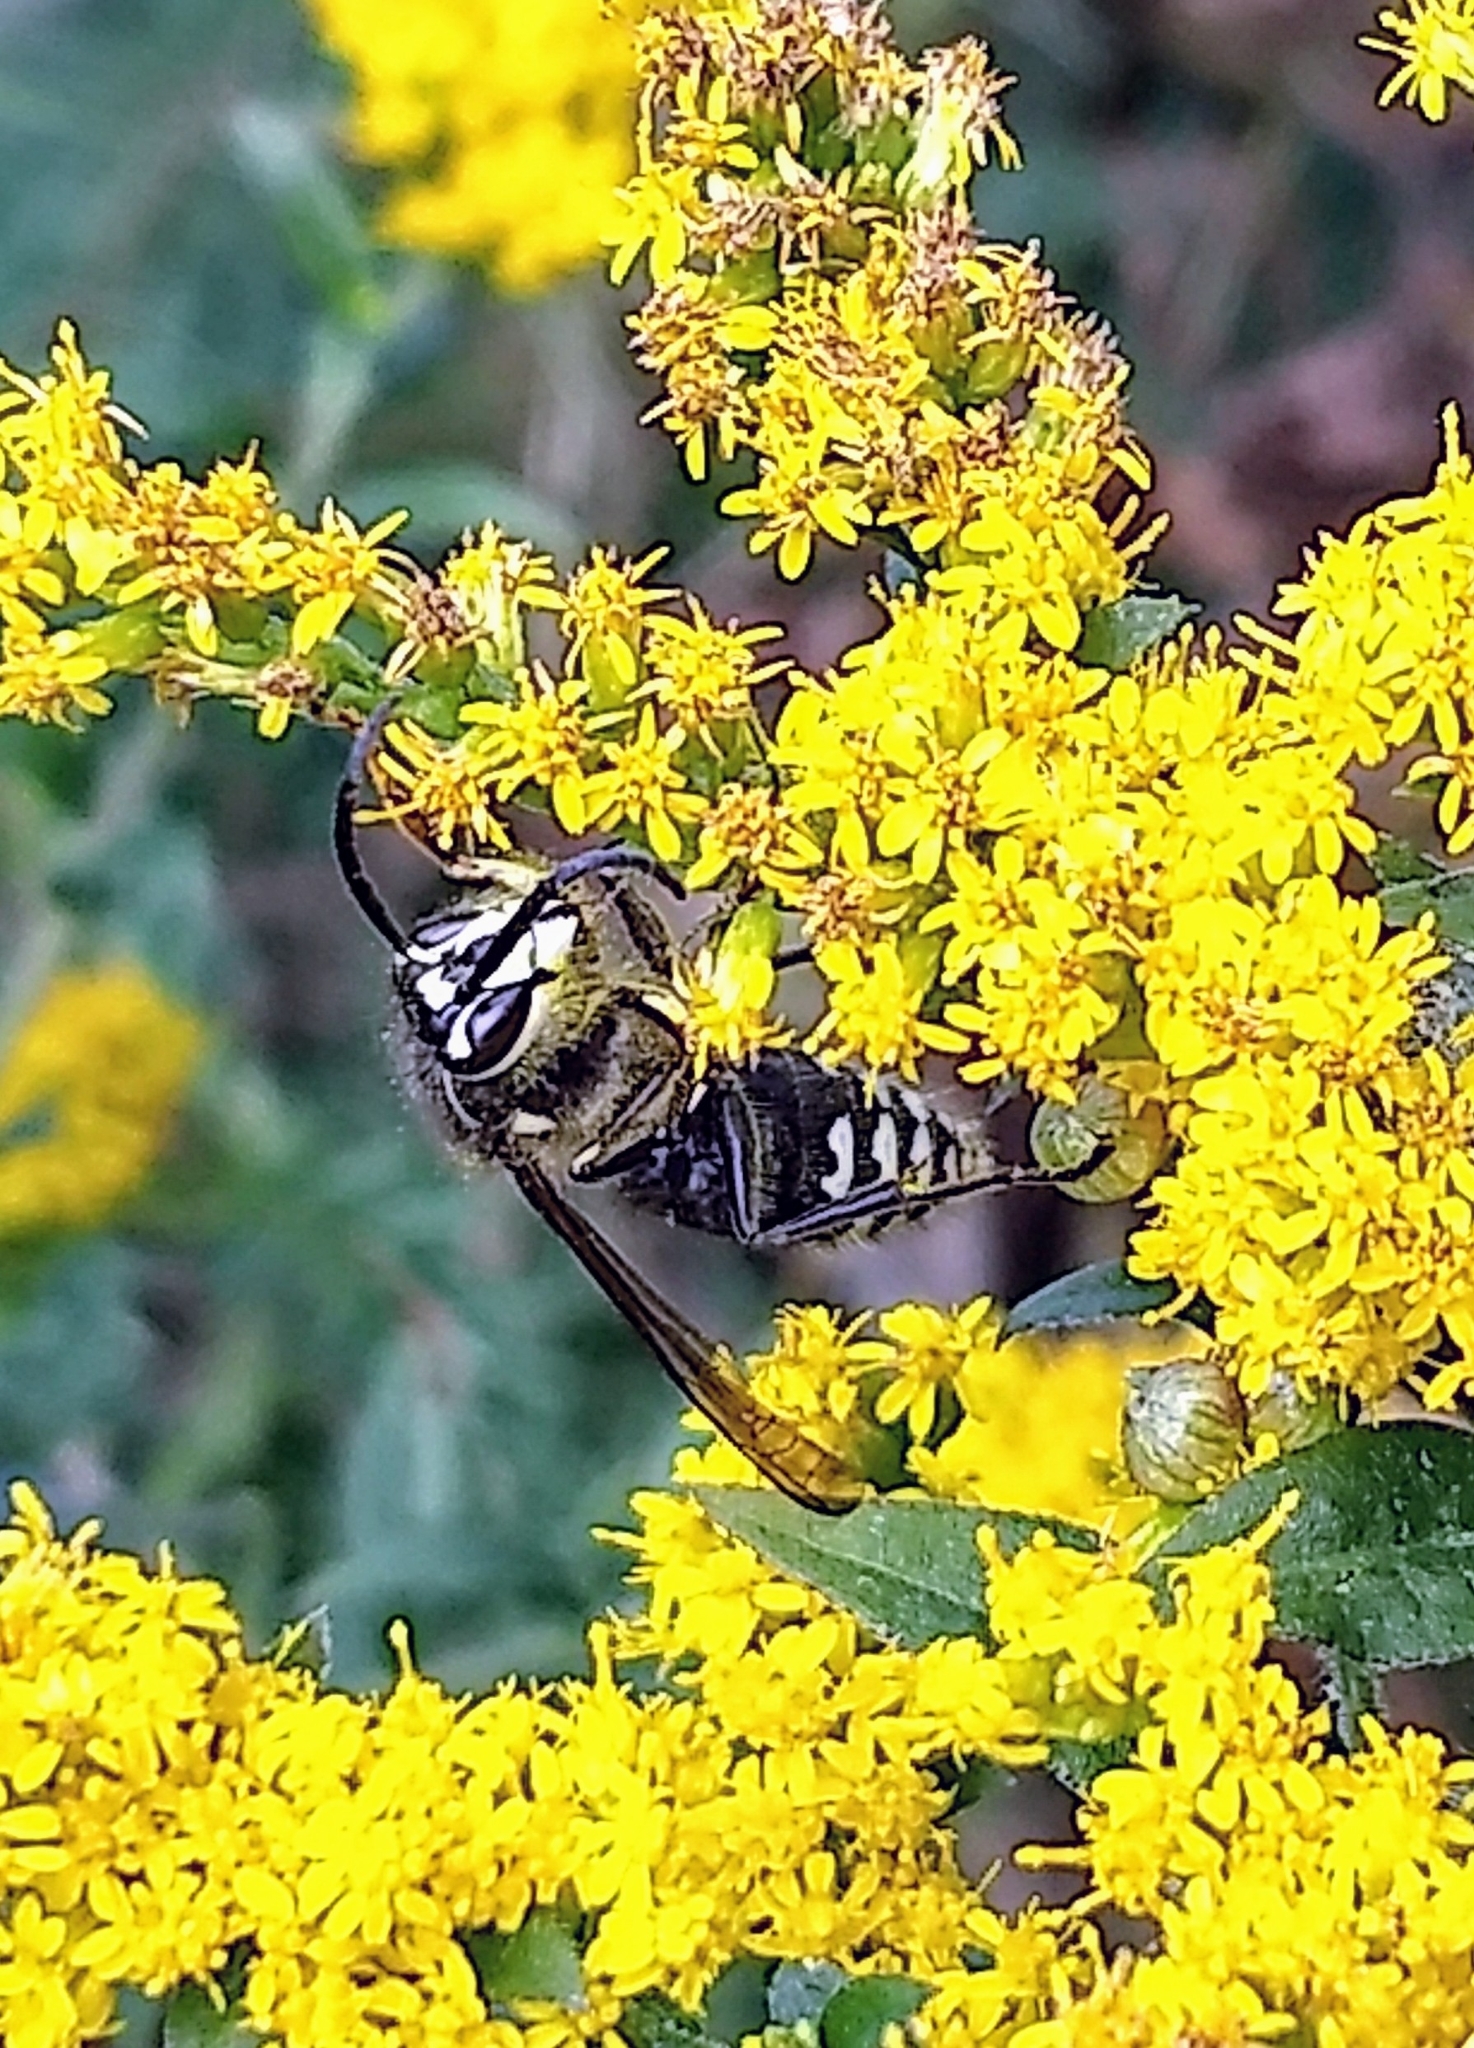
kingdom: Animalia
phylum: Arthropoda
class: Insecta
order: Hymenoptera
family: Vespidae
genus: Dolichovespula
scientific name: Dolichovespula maculata
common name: Bald-faced hornet
